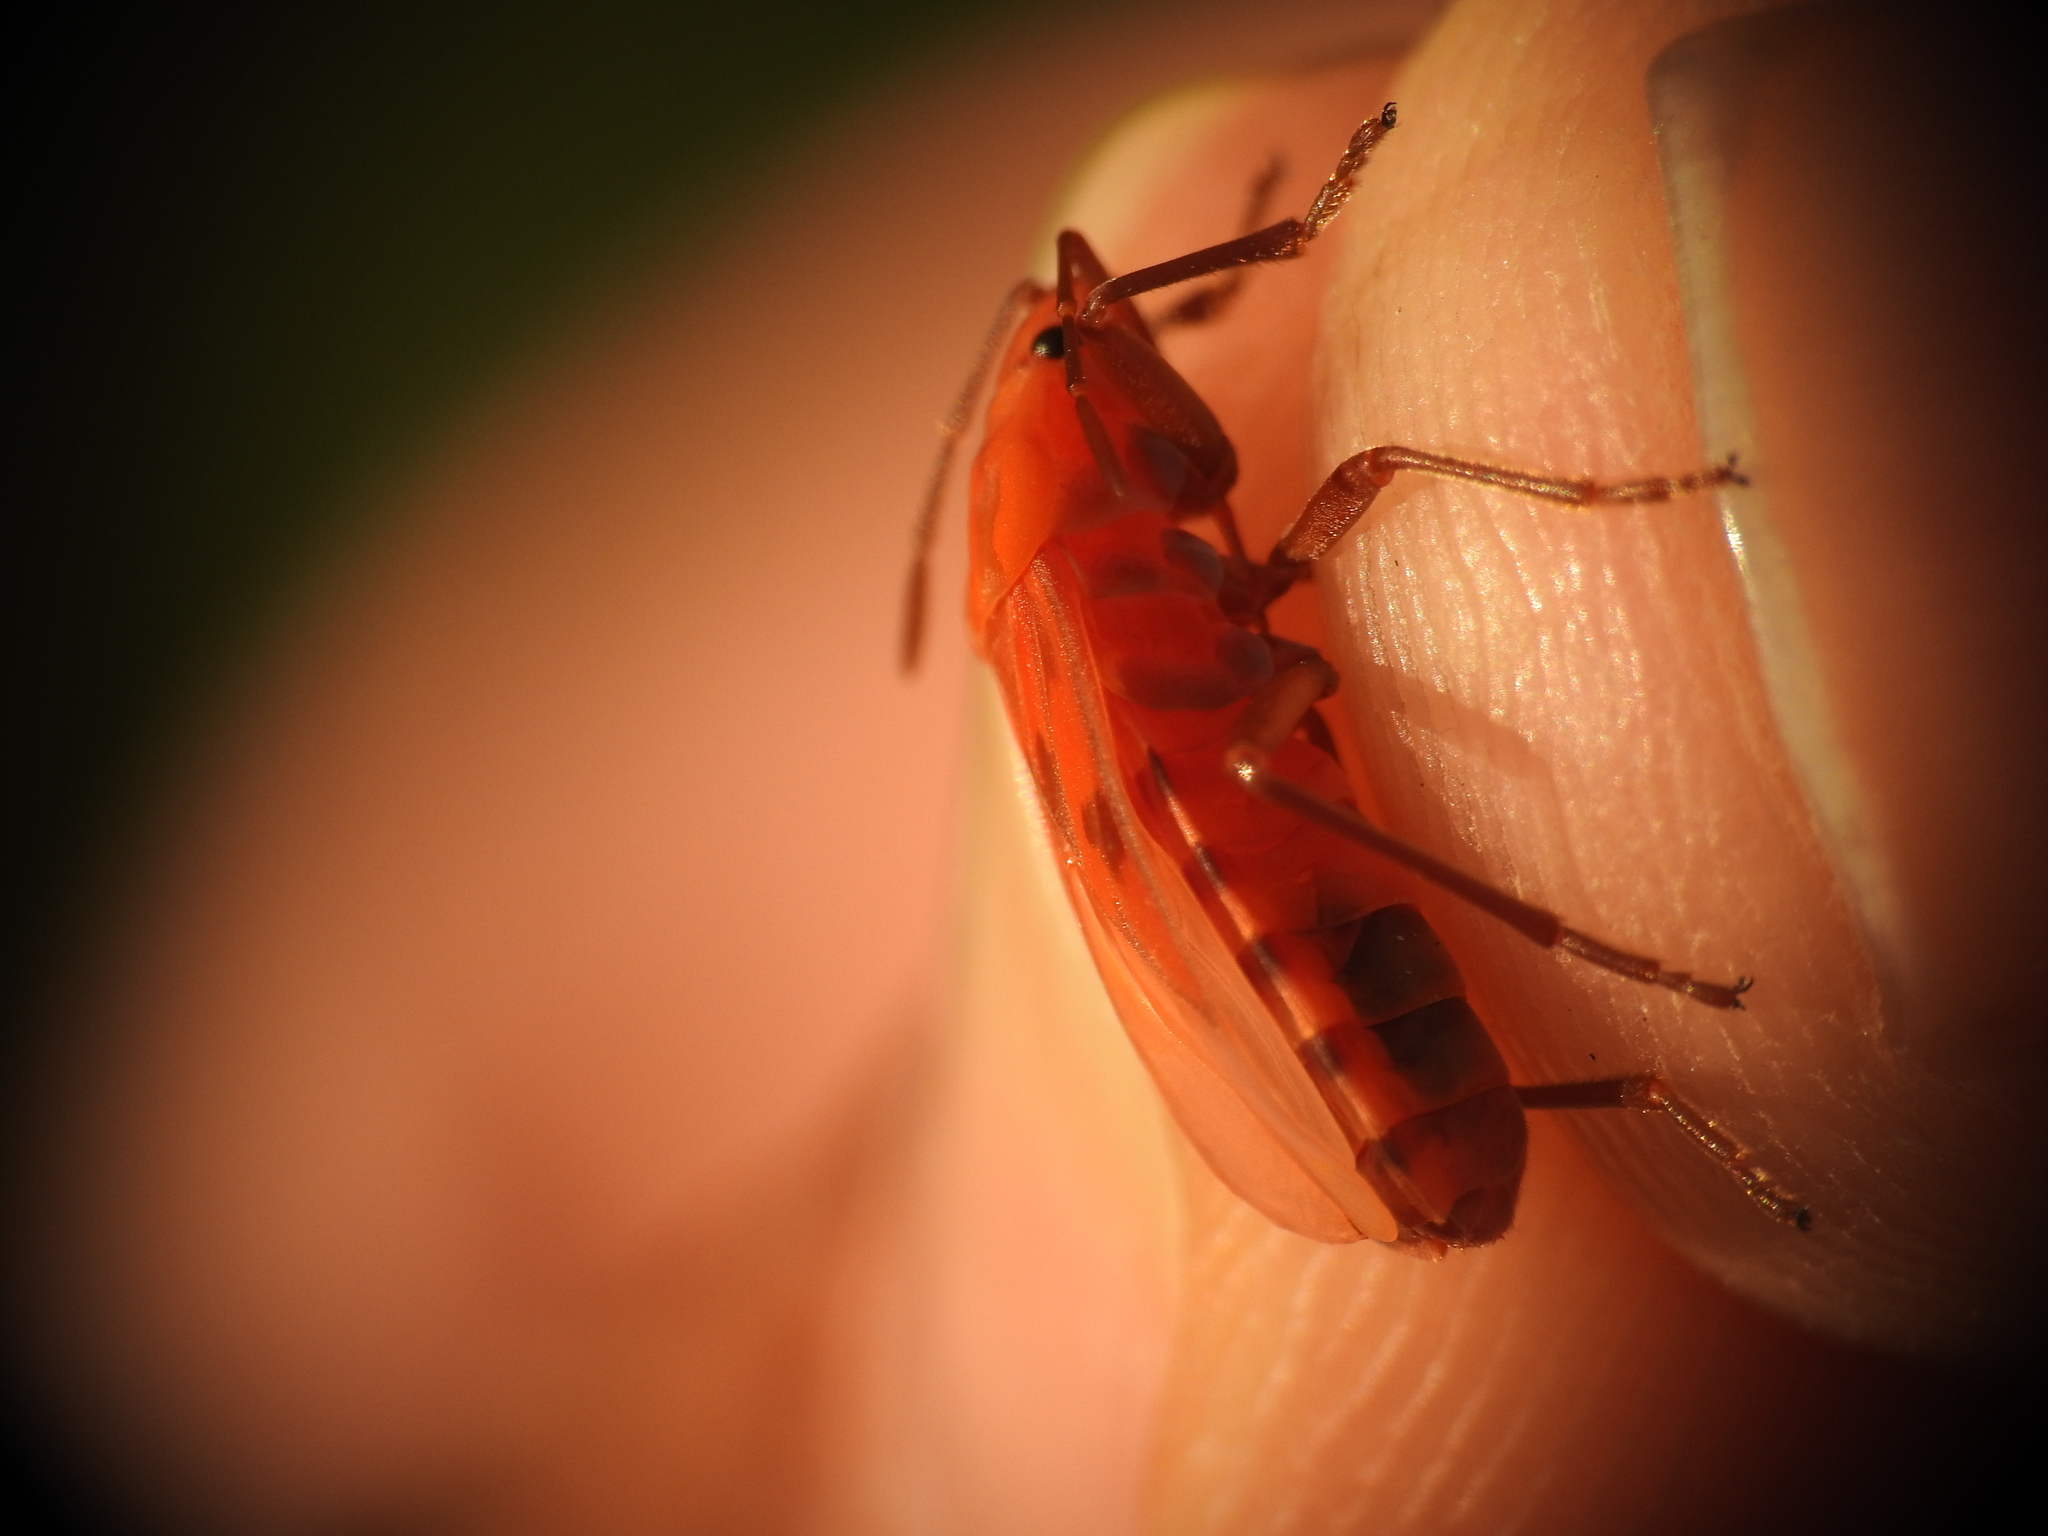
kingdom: Animalia
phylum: Arthropoda
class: Insecta
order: Hemiptera
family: Lygaeidae
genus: Spilostethus
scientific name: Spilostethus saxatilis
